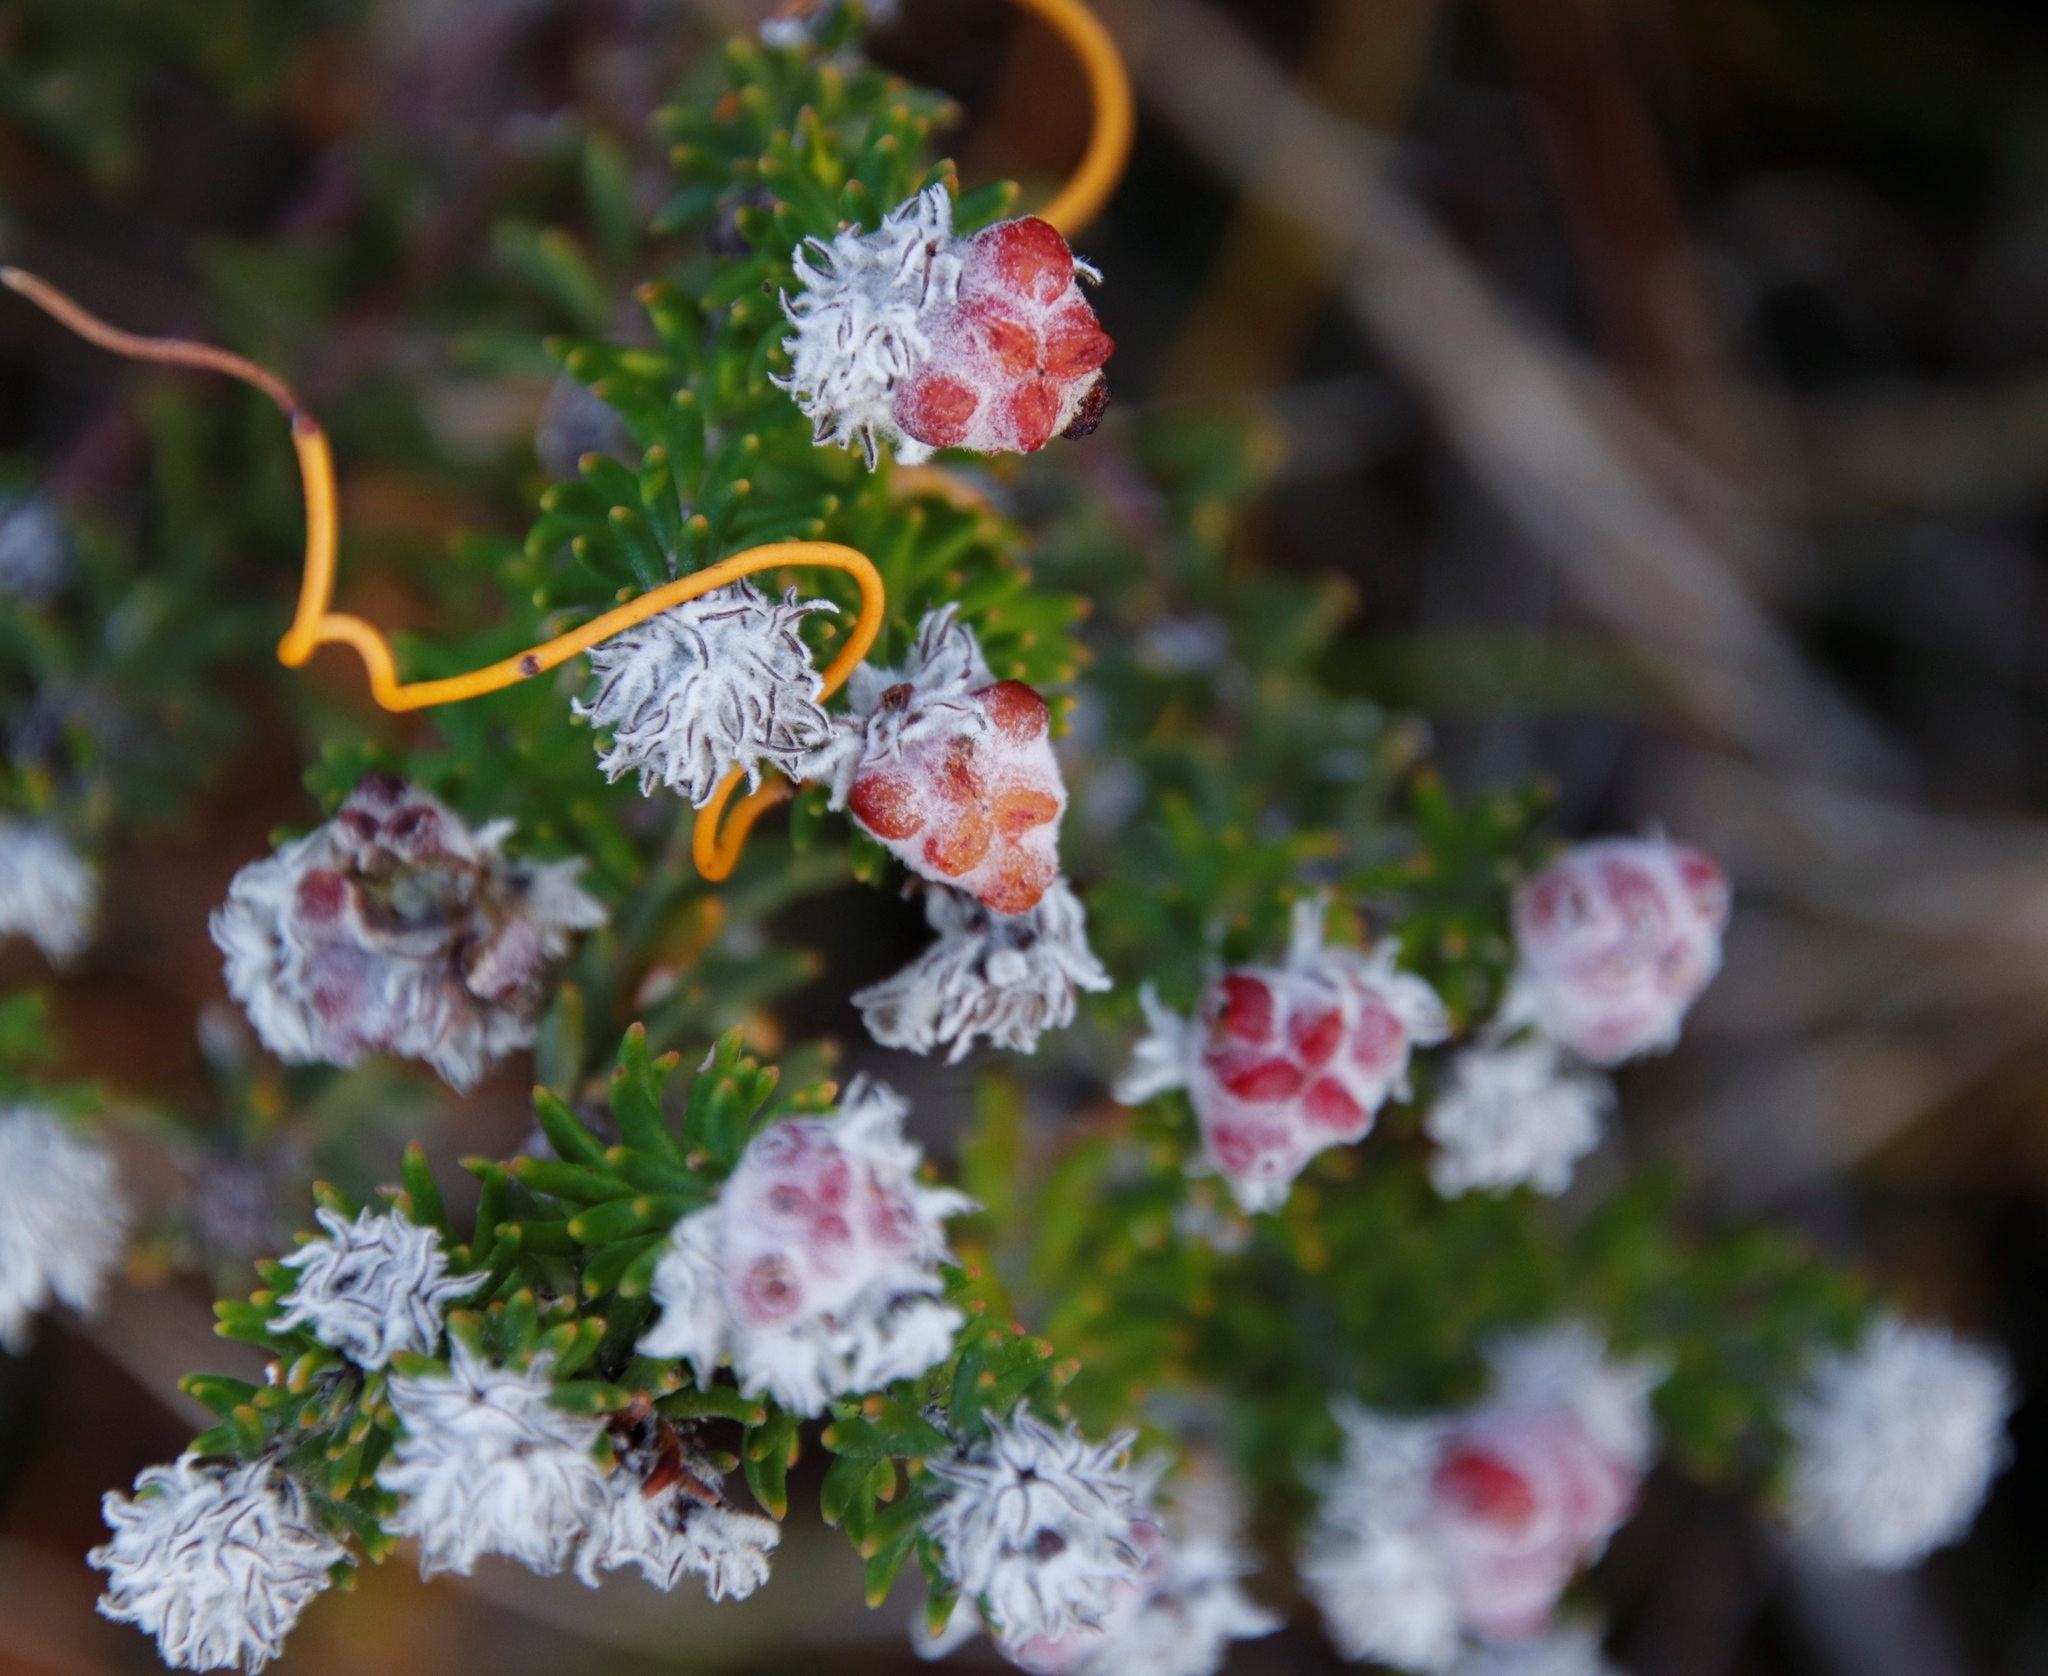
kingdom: Plantae
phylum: Tracheophyta
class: Magnoliopsida
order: Rosales
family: Rhamnaceae
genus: Trichocephalus
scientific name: Trichocephalus stipularis
